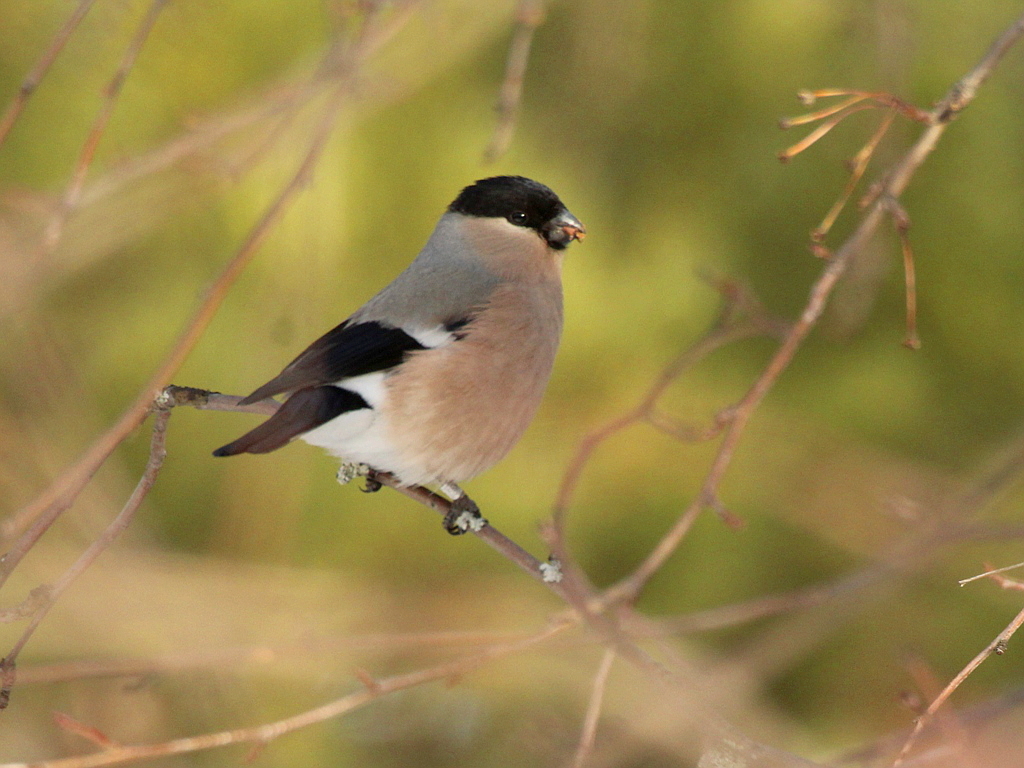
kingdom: Animalia
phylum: Chordata
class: Aves
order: Passeriformes
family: Fringillidae
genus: Pyrrhula
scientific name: Pyrrhula pyrrhula
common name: Eurasian bullfinch
